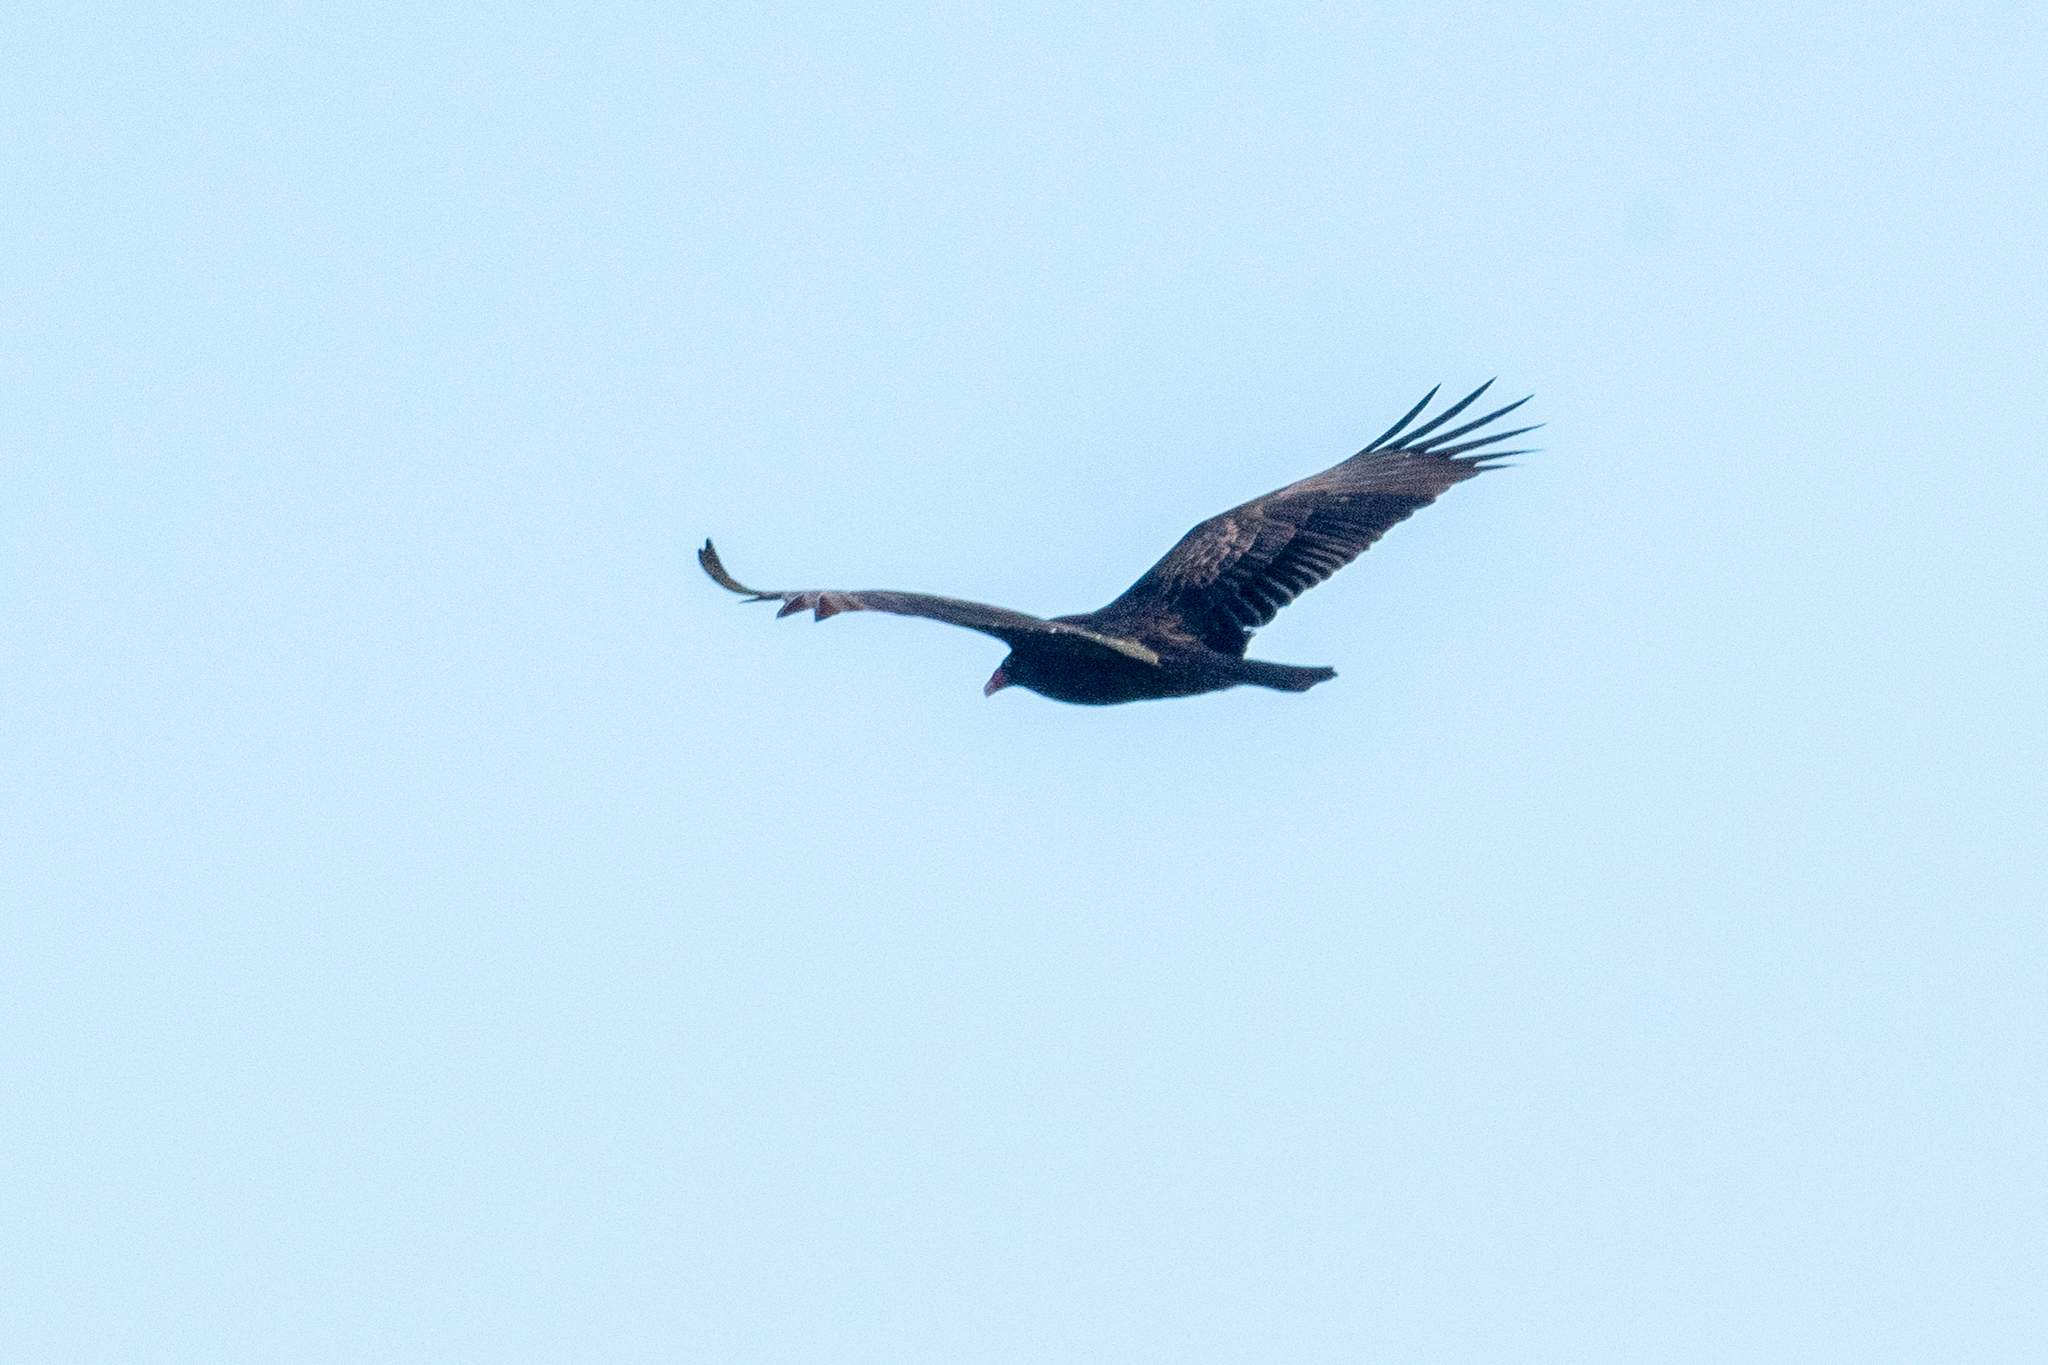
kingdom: Animalia
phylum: Chordata
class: Aves
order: Accipitriformes
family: Cathartidae
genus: Cathartes
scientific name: Cathartes aura
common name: Turkey vulture
